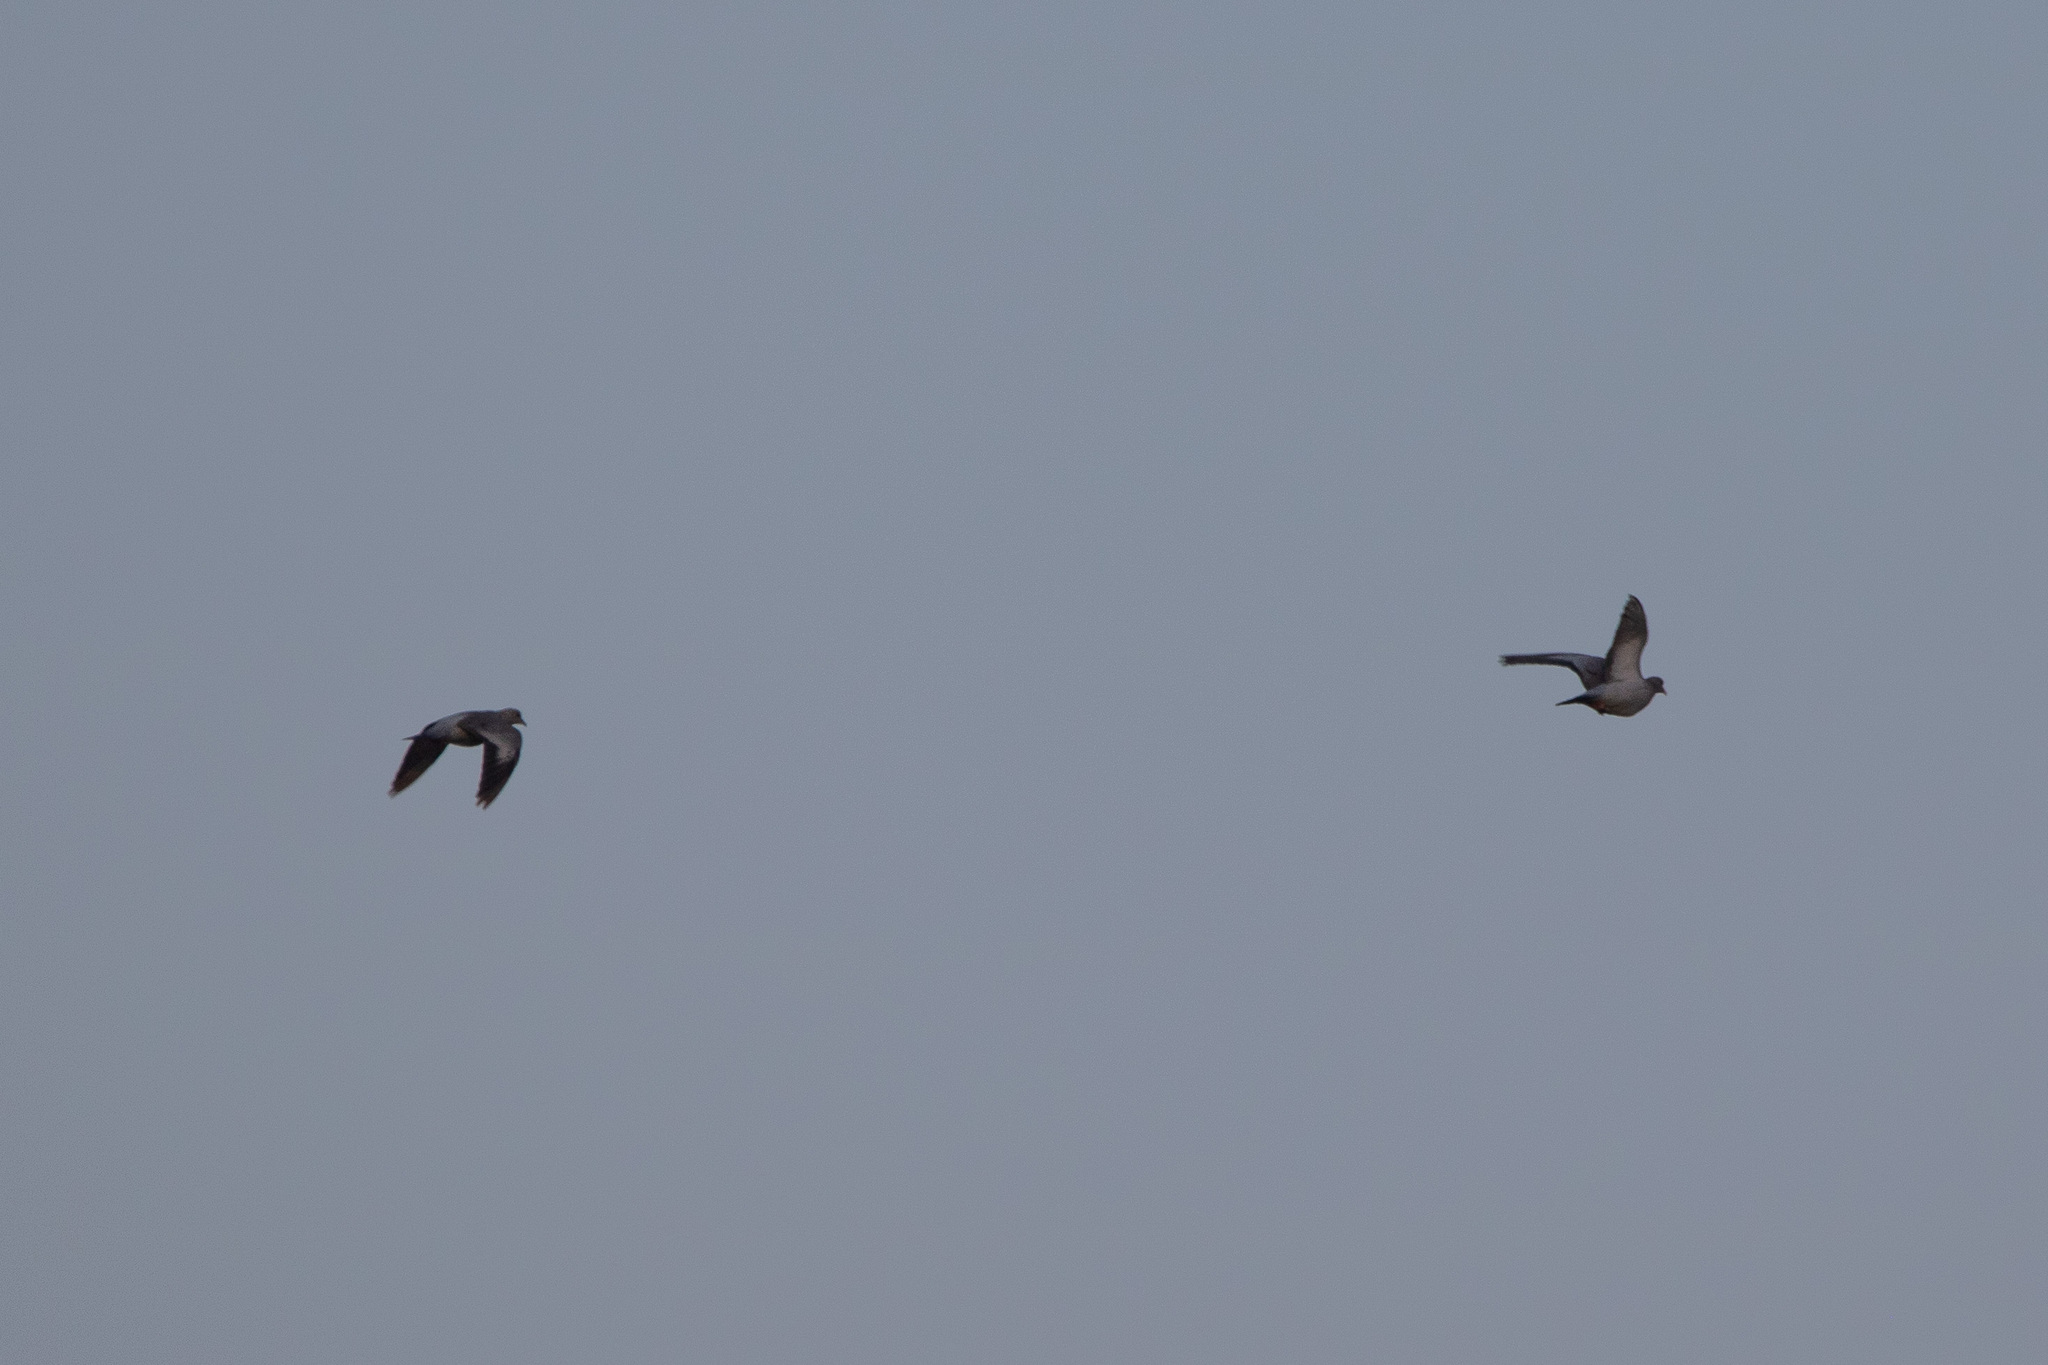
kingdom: Animalia
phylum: Chordata
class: Aves
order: Columbiformes
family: Columbidae
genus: Columba
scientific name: Columba oenas
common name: Stock dove
